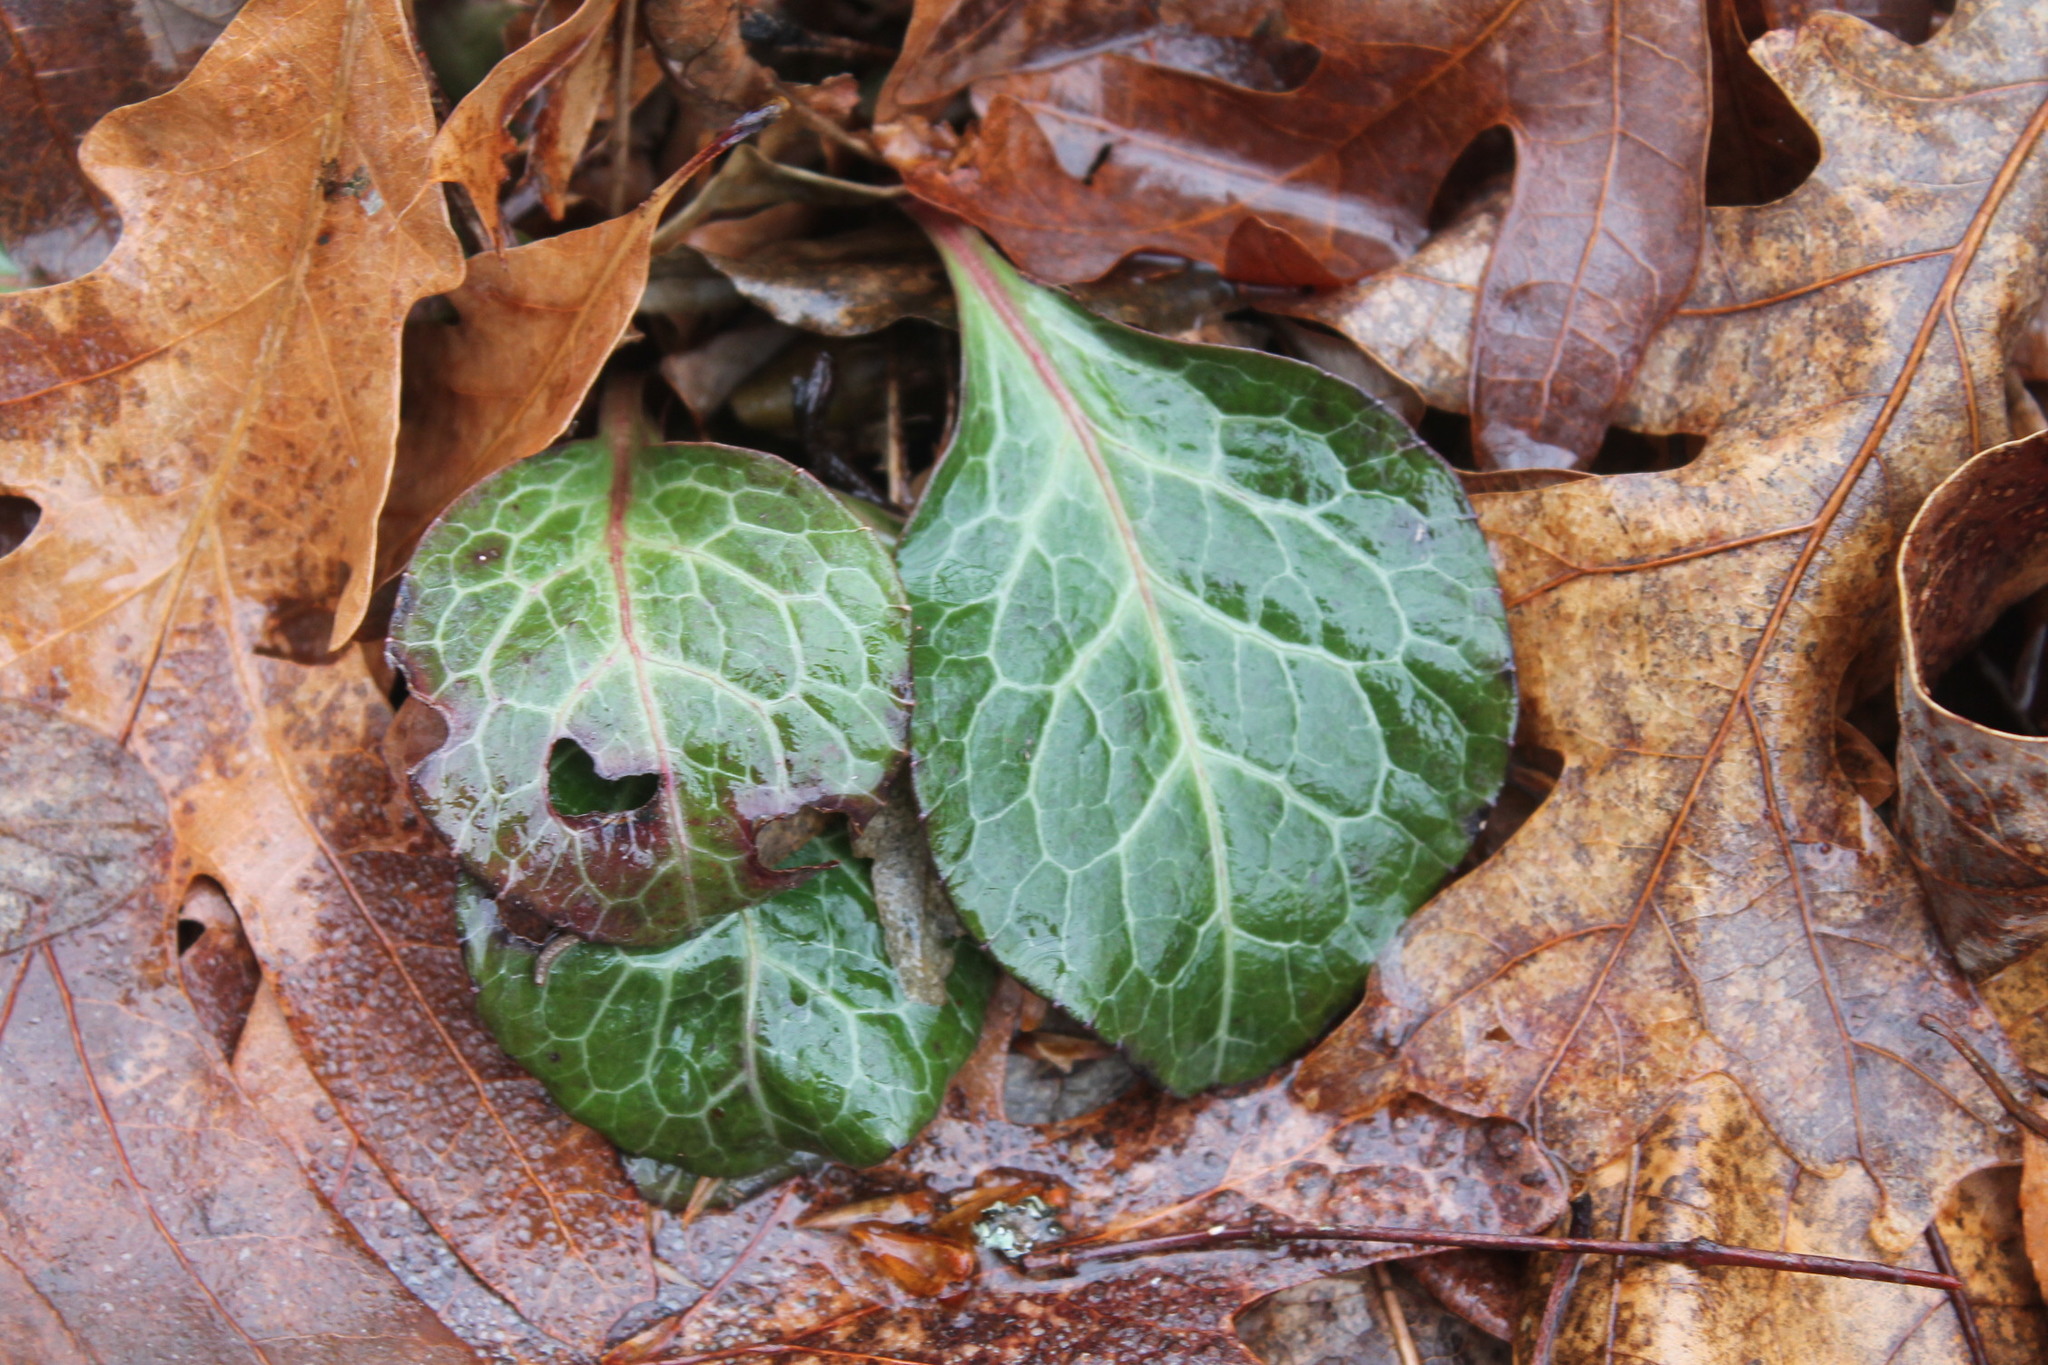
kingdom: Plantae
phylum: Tracheophyta
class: Magnoliopsida
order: Ericales
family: Ericaceae
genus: Pyrola
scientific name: Pyrola americana
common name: American wintergreen
